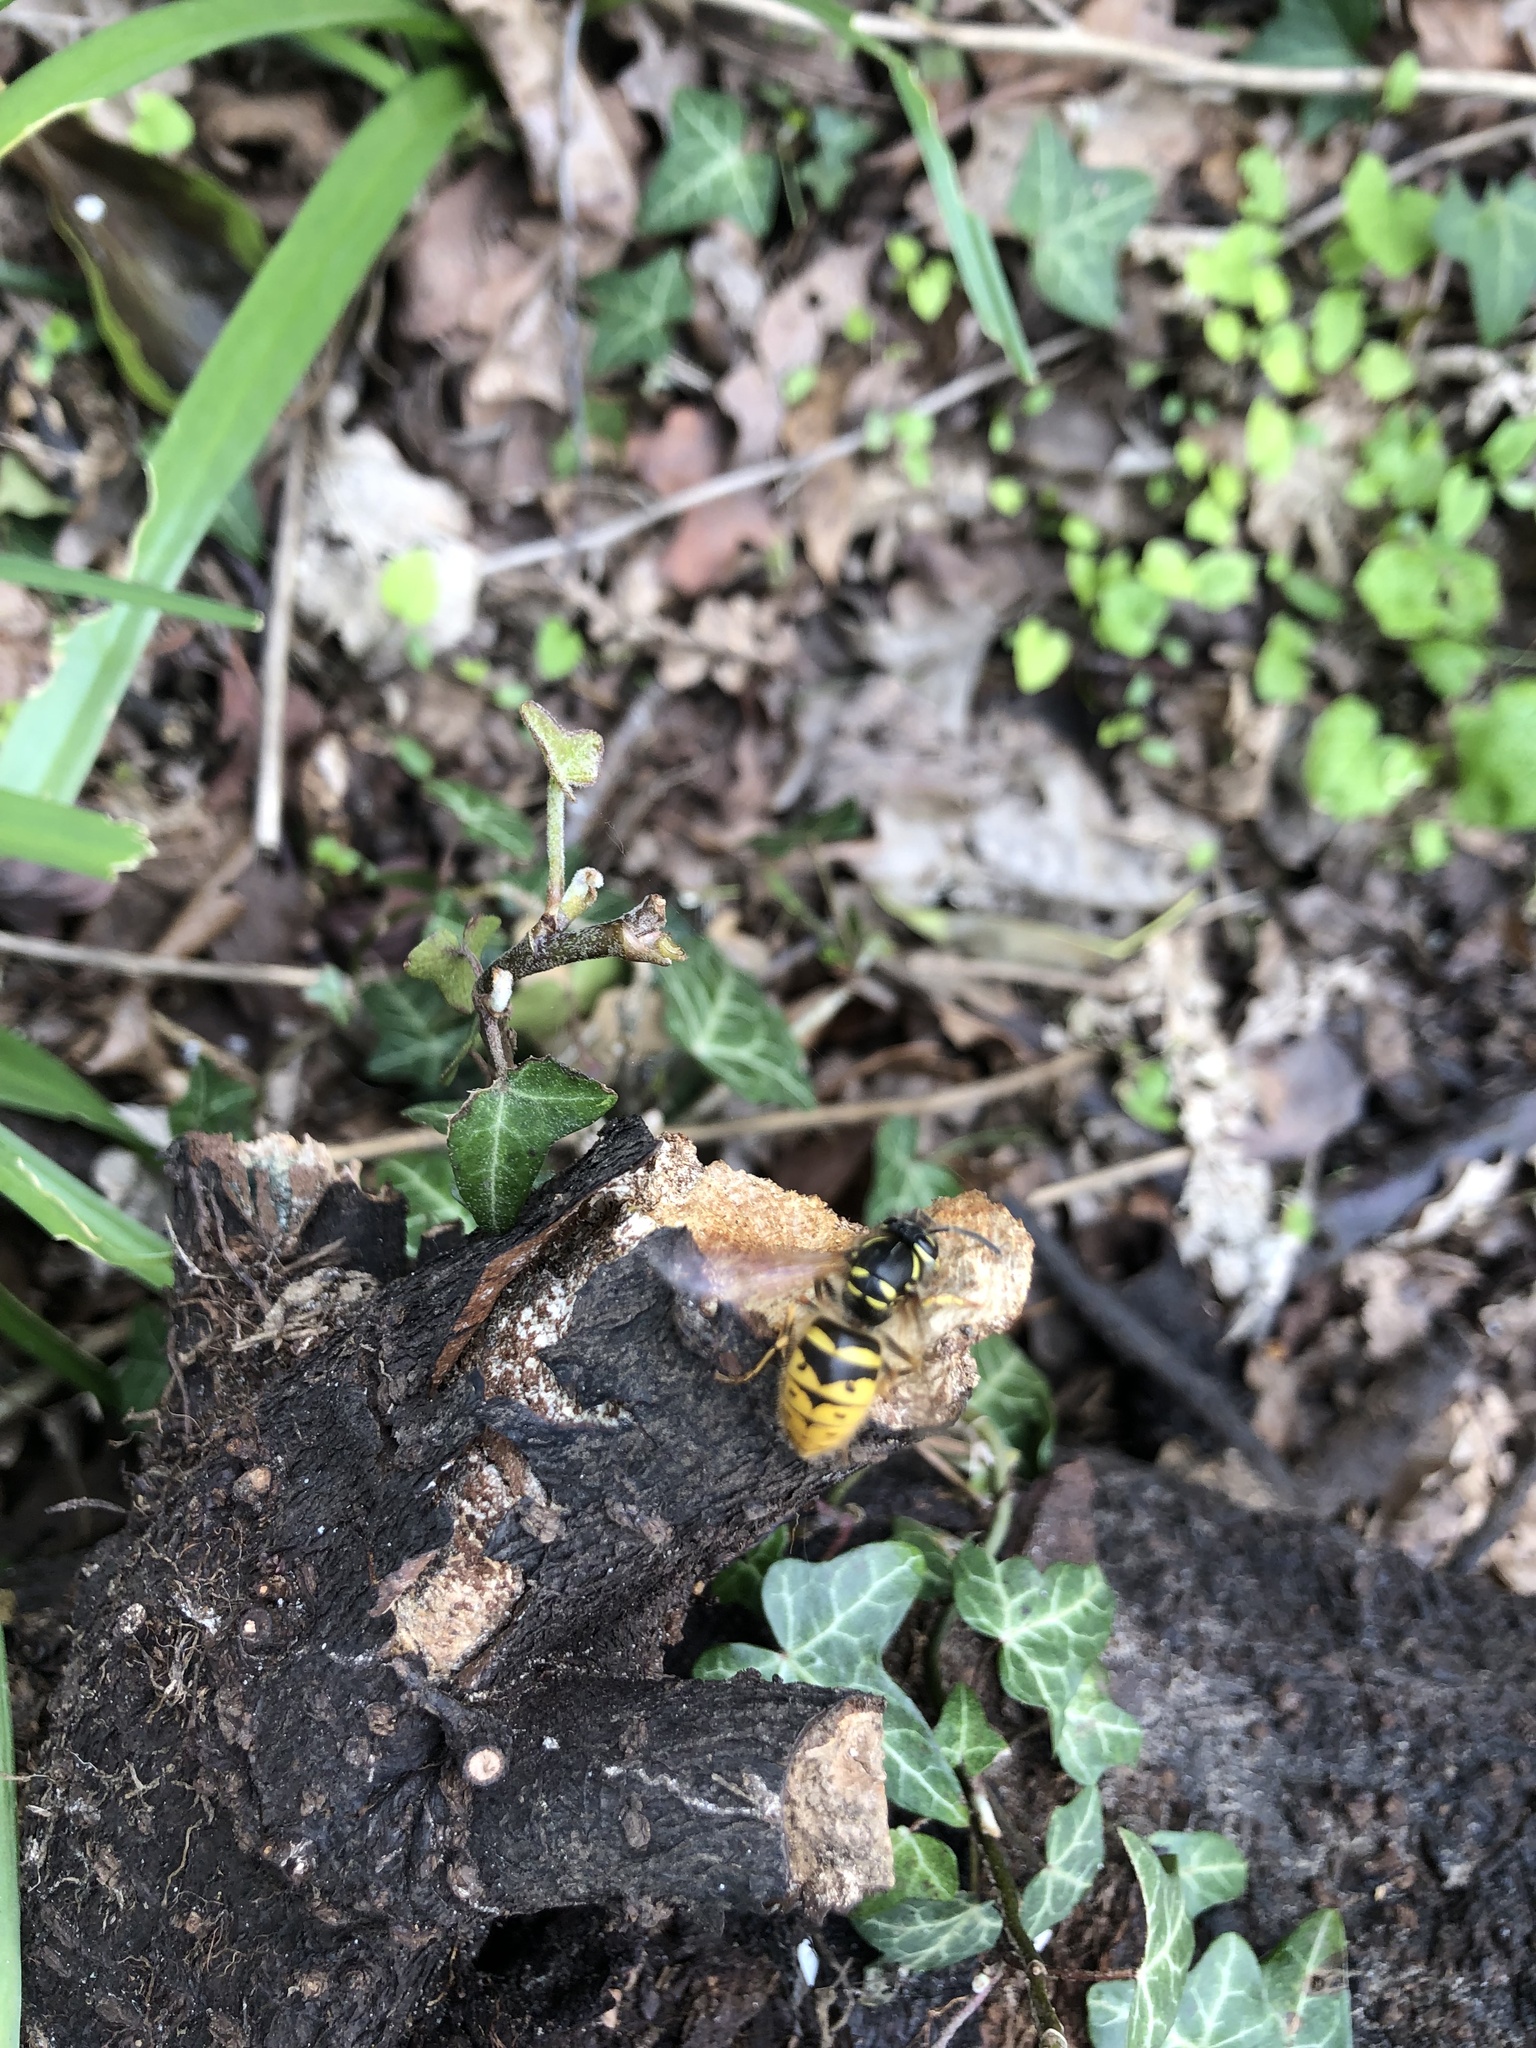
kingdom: Animalia
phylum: Arthropoda
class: Insecta
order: Hymenoptera
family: Vespidae
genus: Vespula
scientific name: Vespula vulgaris
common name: Common wasp
